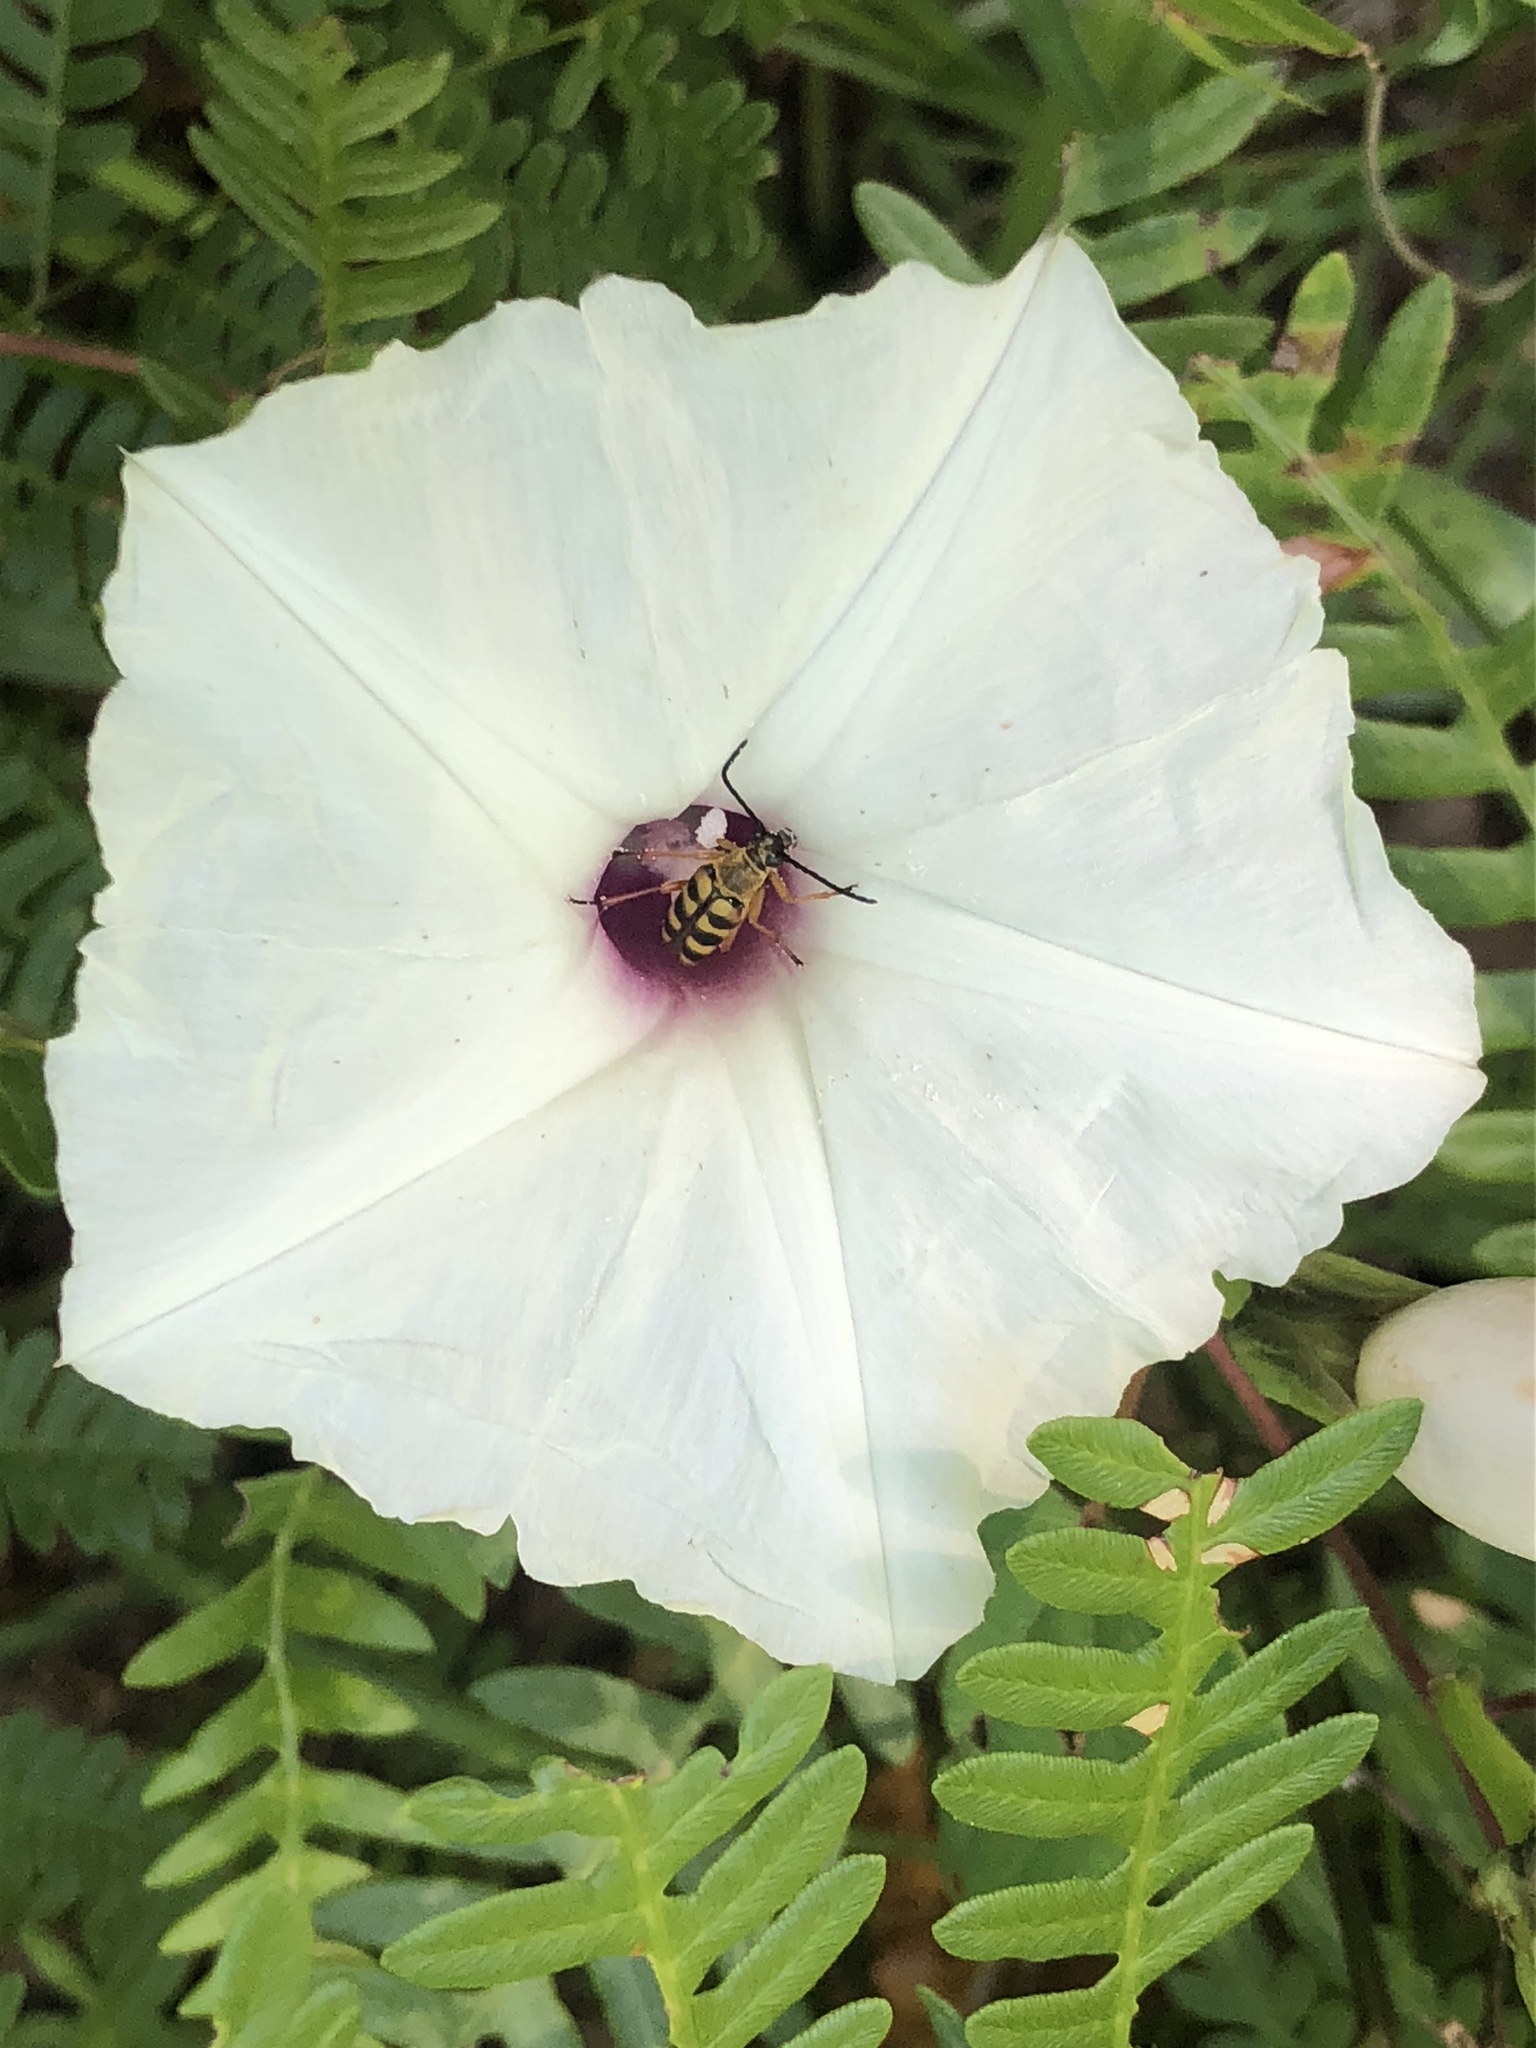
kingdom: Plantae
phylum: Tracheophyta
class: Magnoliopsida
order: Solanales
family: Convolvulaceae
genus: Ipomoea
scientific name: Ipomoea pandurata
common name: Man-of-the-earth
